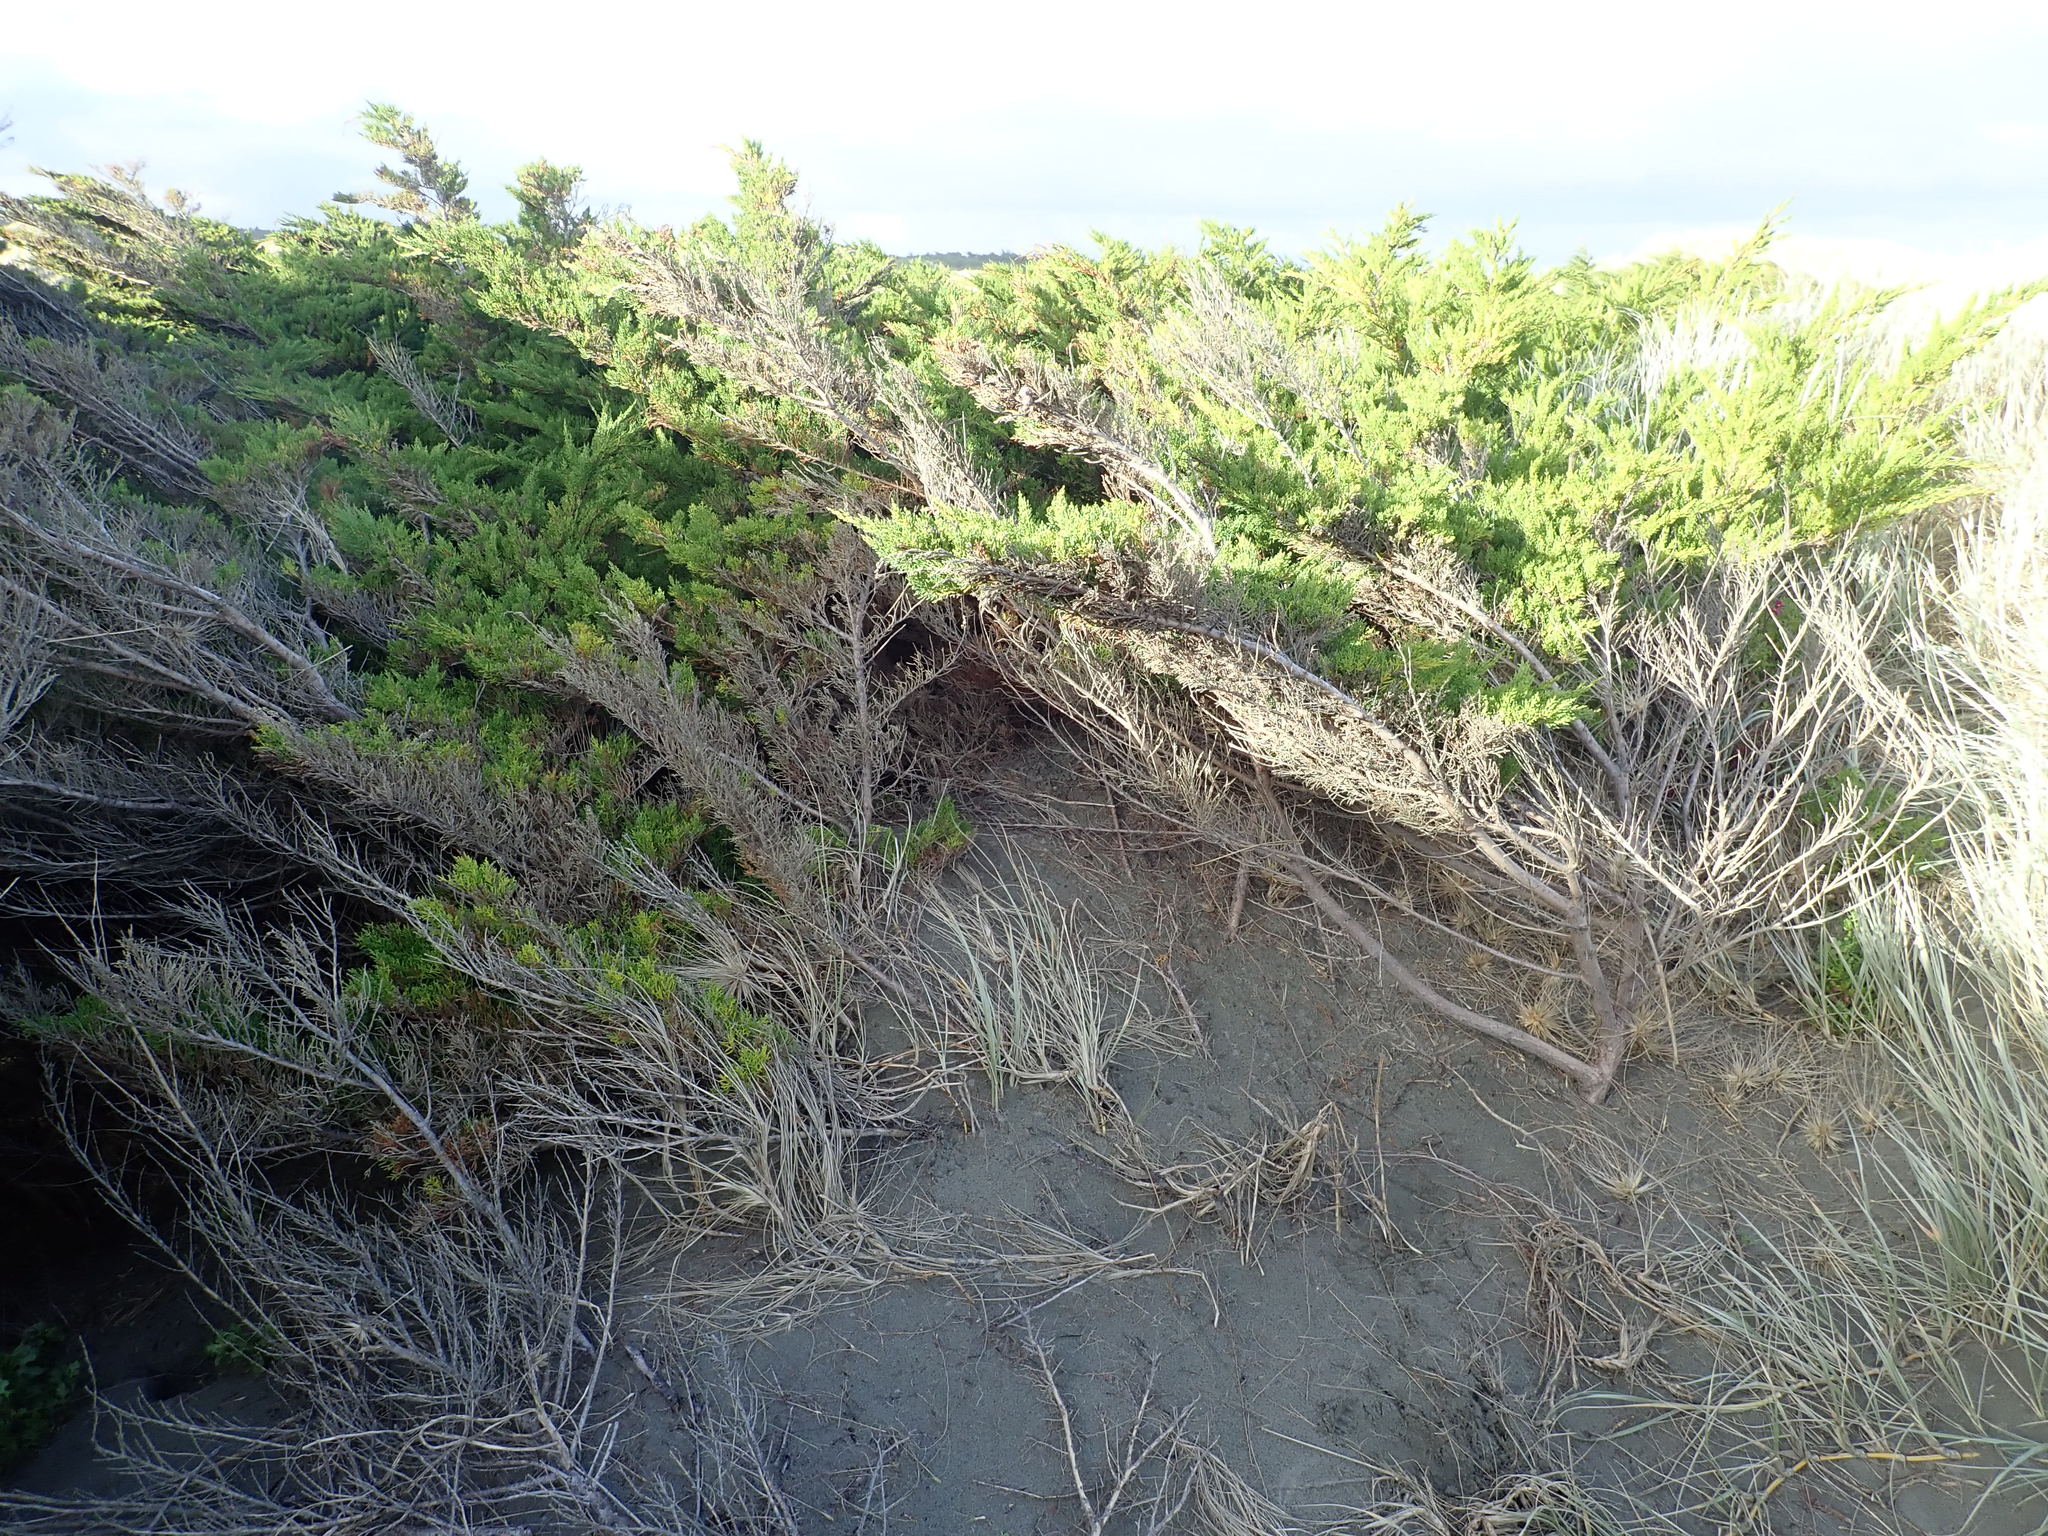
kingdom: Plantae
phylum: Tracheophyta
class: Pinopsida
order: Pinales
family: Cupressaceae
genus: Cupressus
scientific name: Cupressus macrocarpa
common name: Monterey cypress
